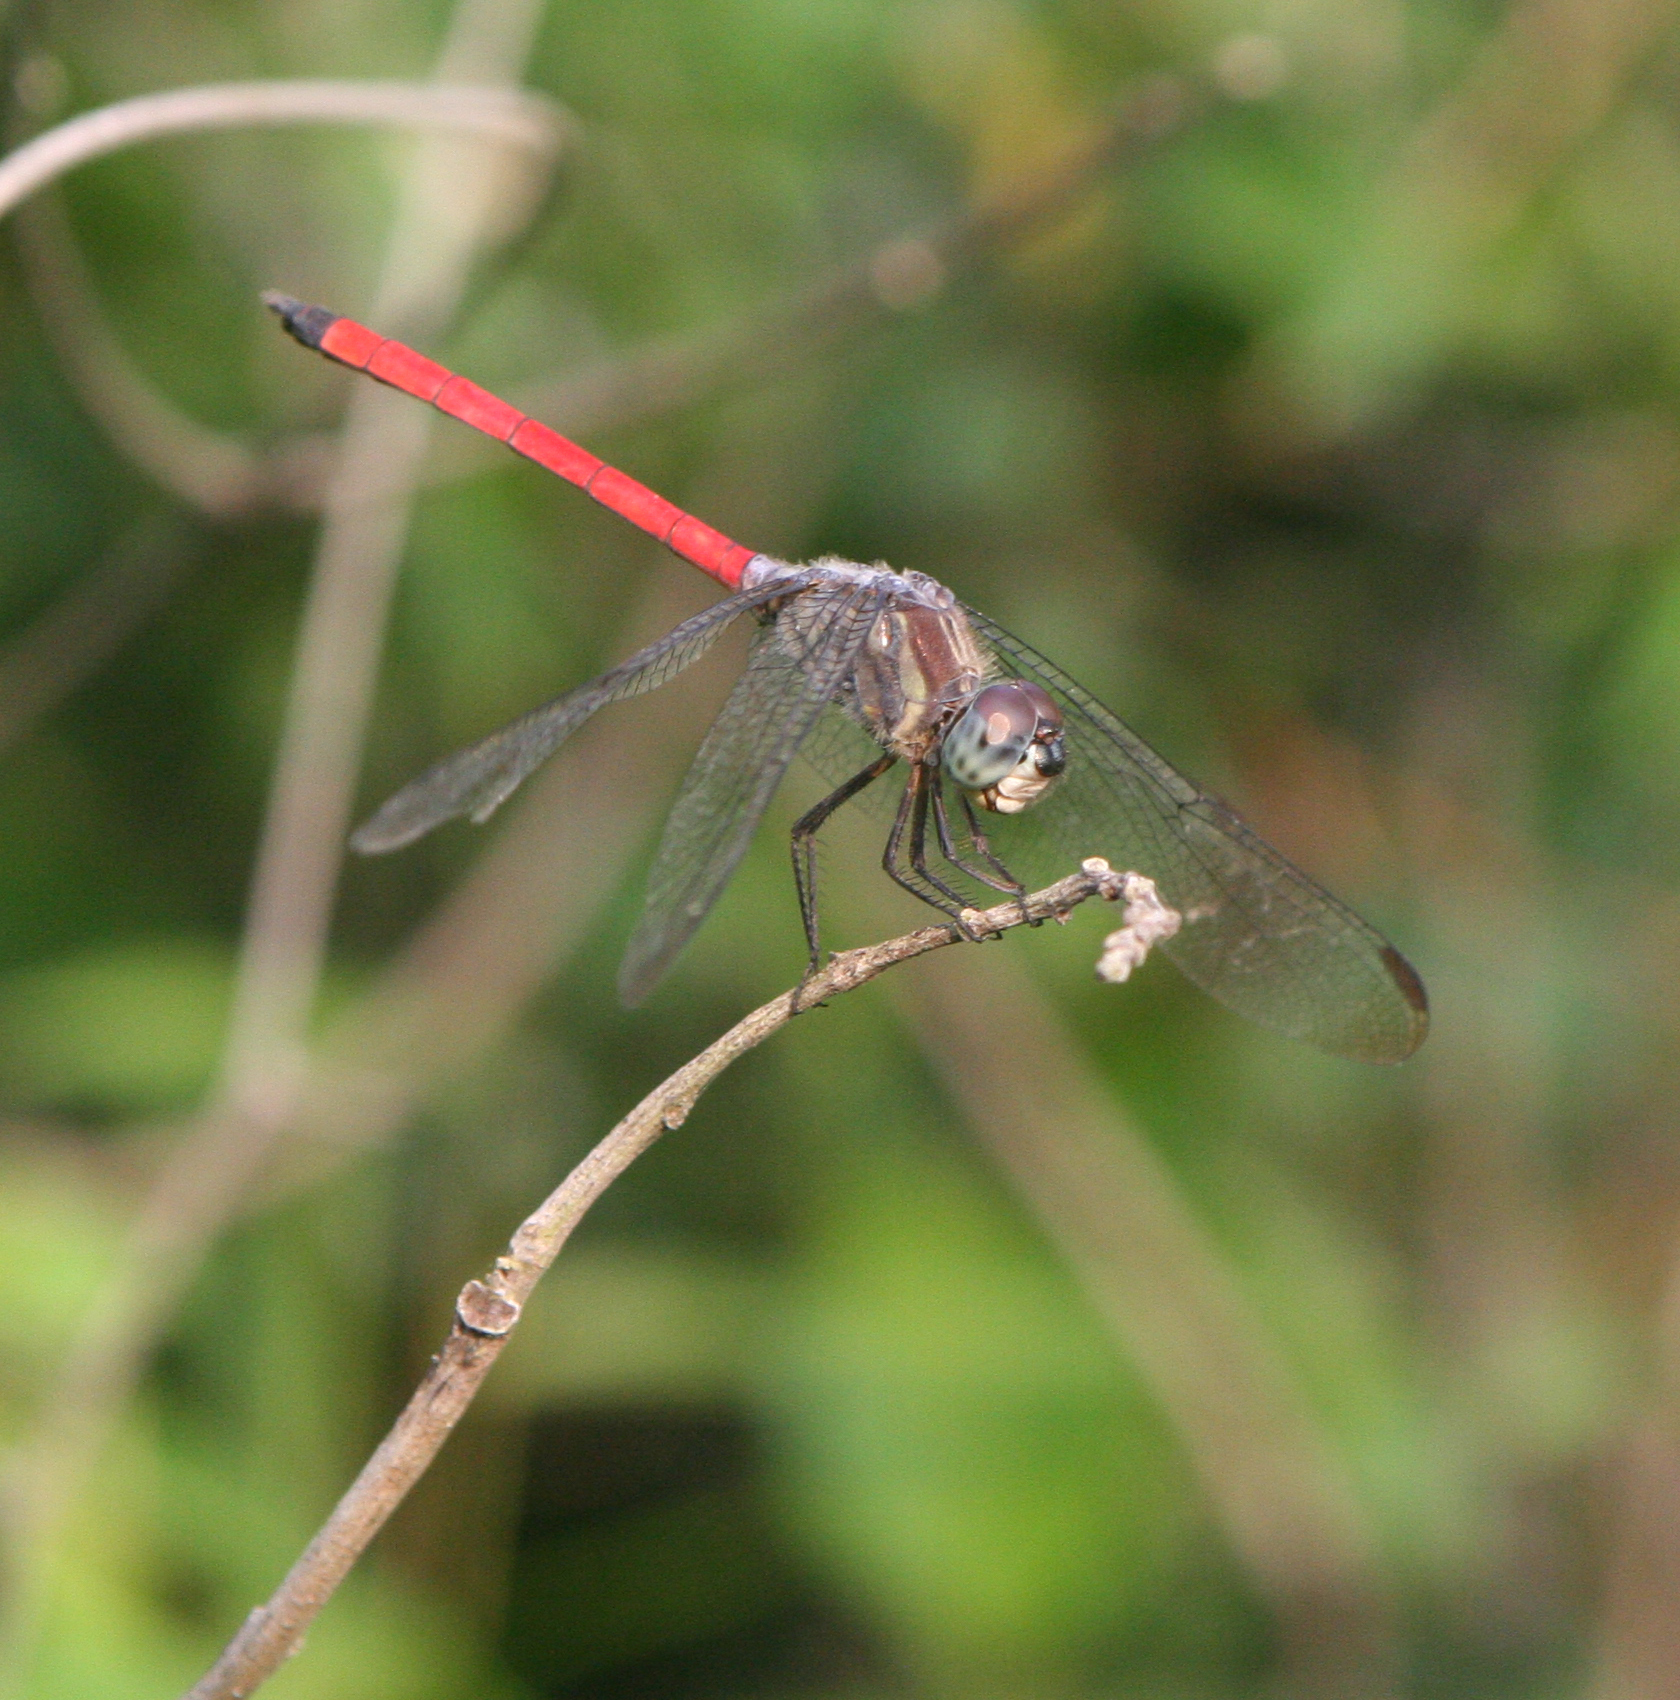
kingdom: Animalia
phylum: Arthropoda
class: Insecta
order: Odonata
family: Libellulidae
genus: Lathrecista
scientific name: Lathrecista asiatica
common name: Scarlet grenadier
